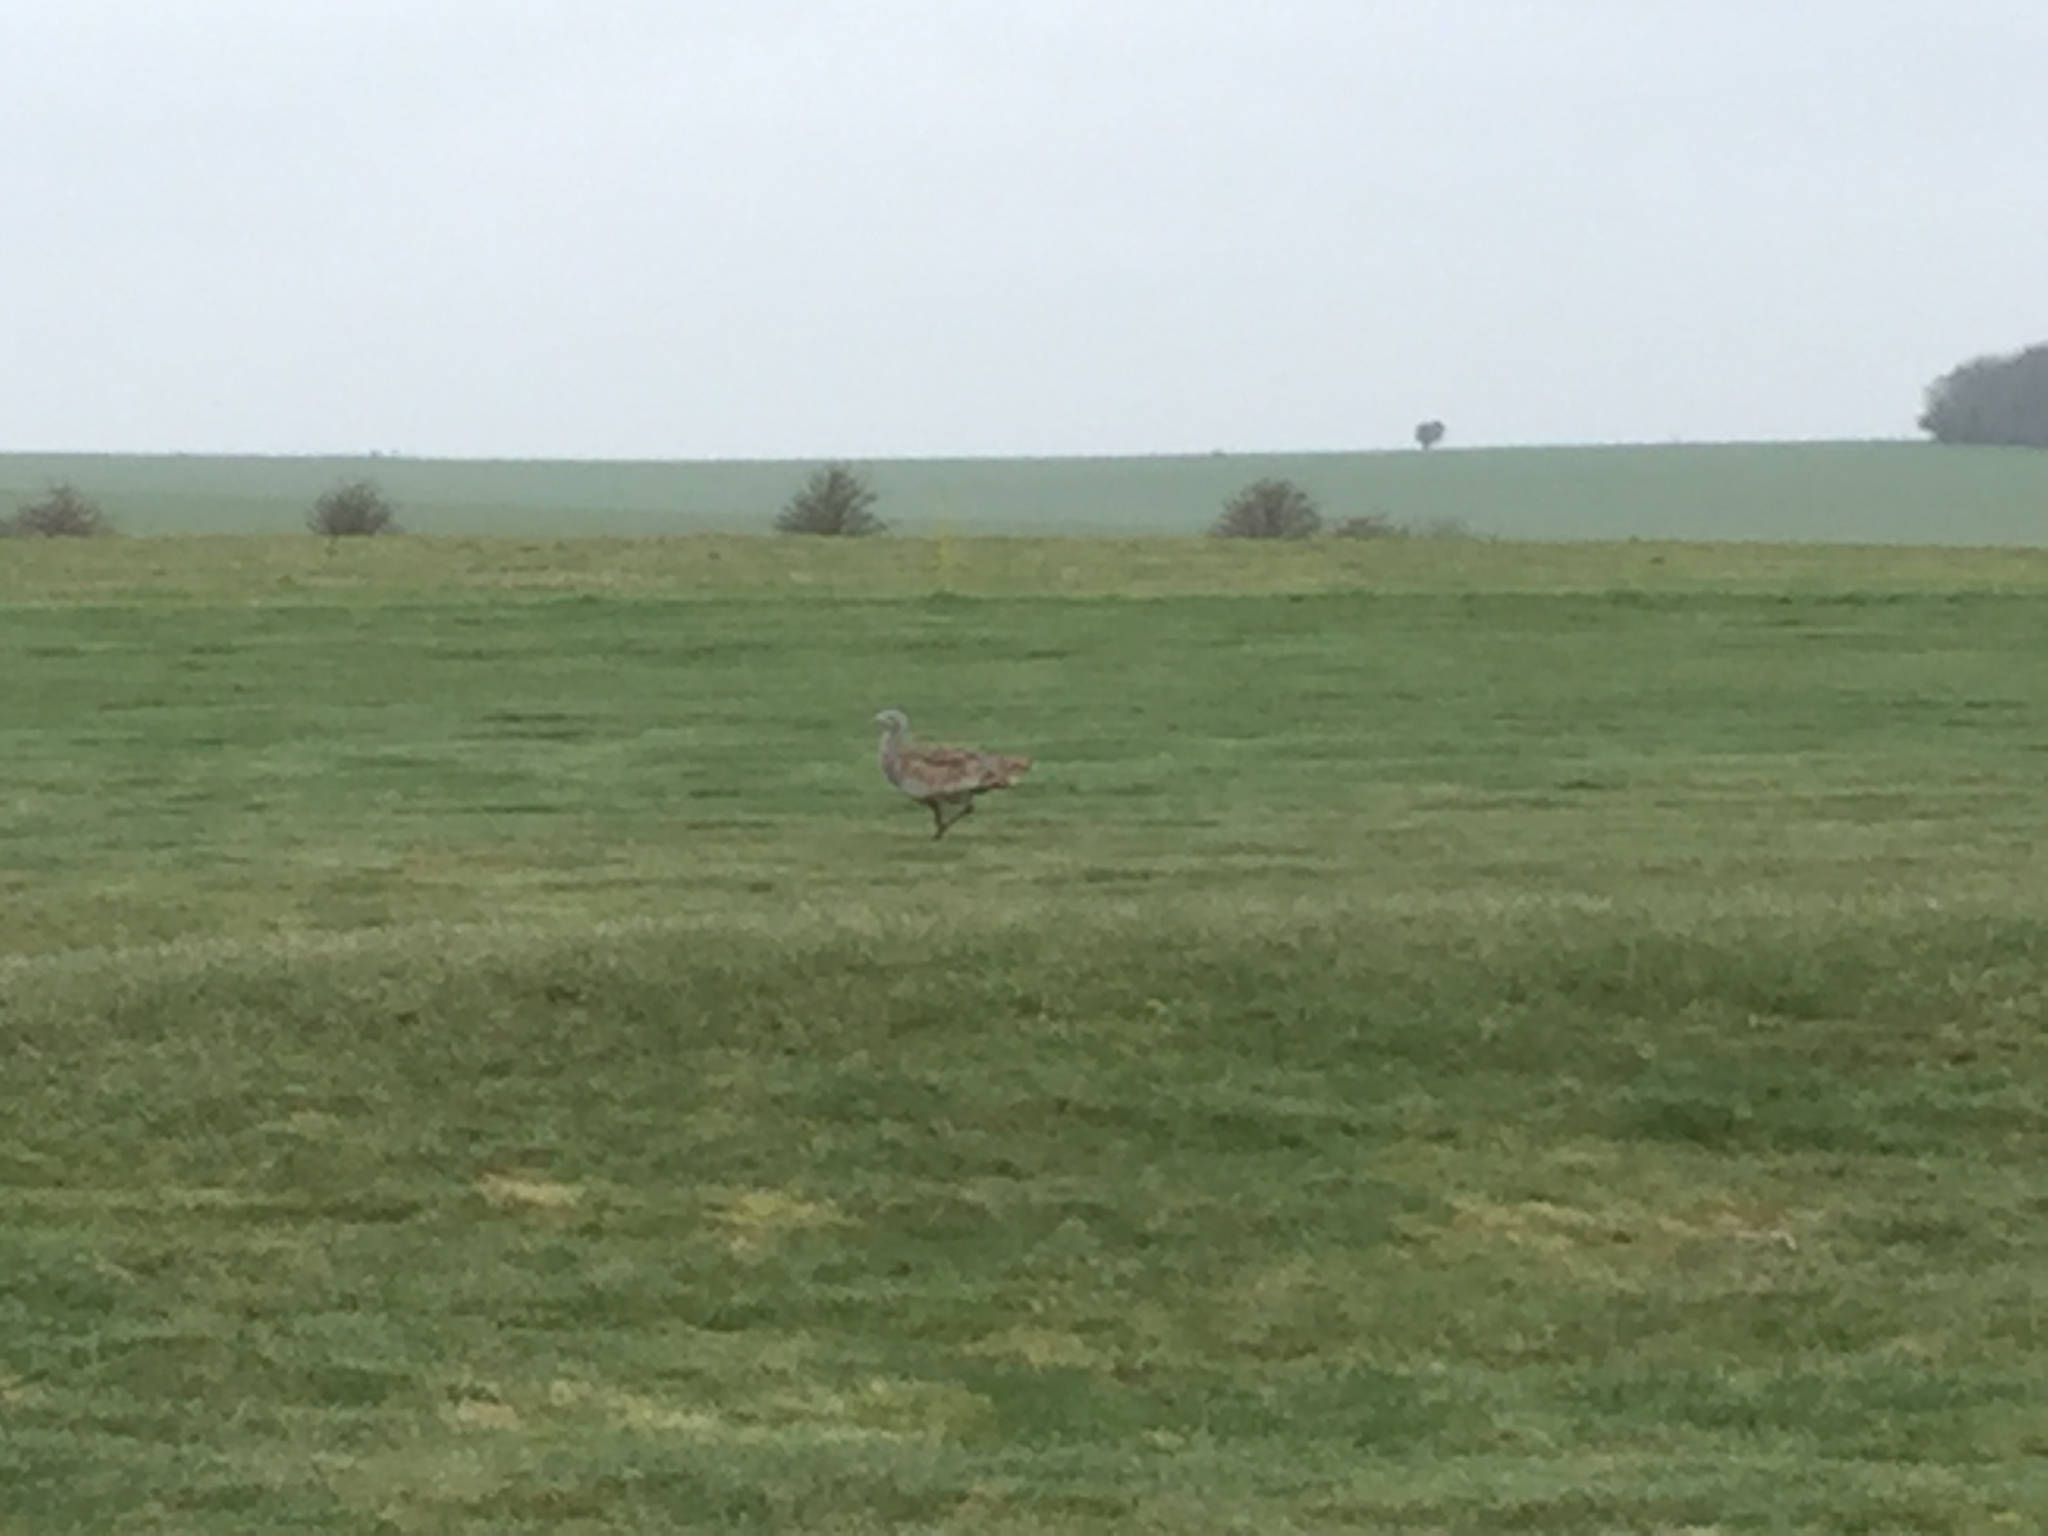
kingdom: Animalia
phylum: Chordata
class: Aves
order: Otidiformes
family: Otididae
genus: Otis
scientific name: Otis tarda
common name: Great bustard
